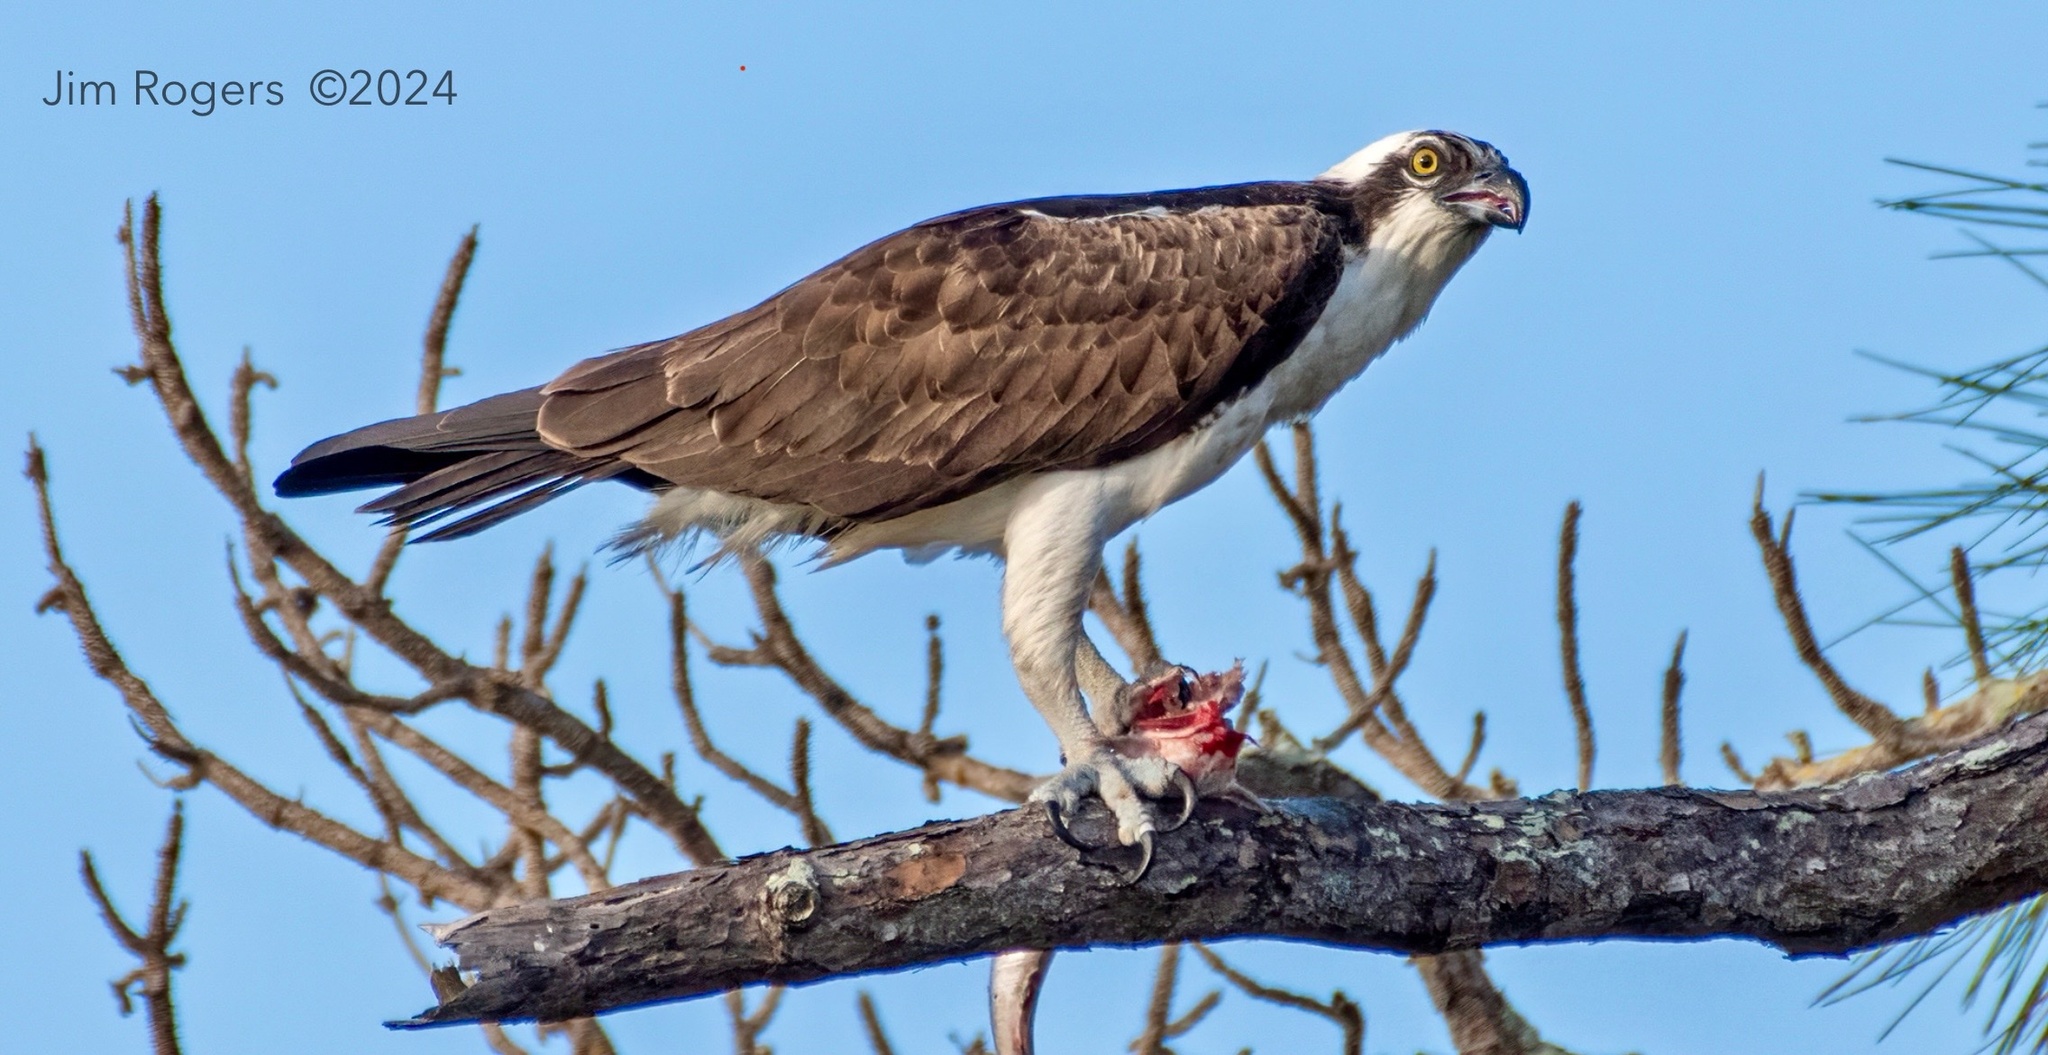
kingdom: Animalia
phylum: Chordata
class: Aves
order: Accipitriformes
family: Pandionidae
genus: Pandion
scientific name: Pandion haliaetus
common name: Osprey
